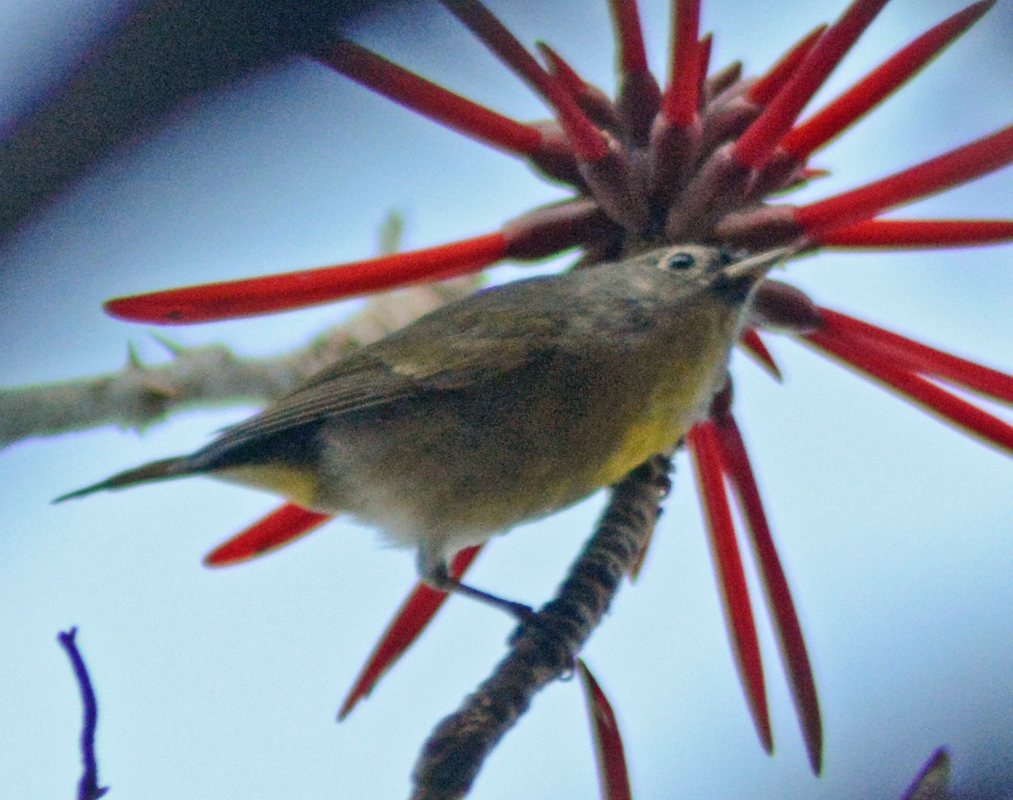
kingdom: Animalia
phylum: Chordata
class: Aves
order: Passeriformes
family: Parulidae
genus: Leiothlypis
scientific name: Leiothlypis ruficapilla
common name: Nashville warbler
